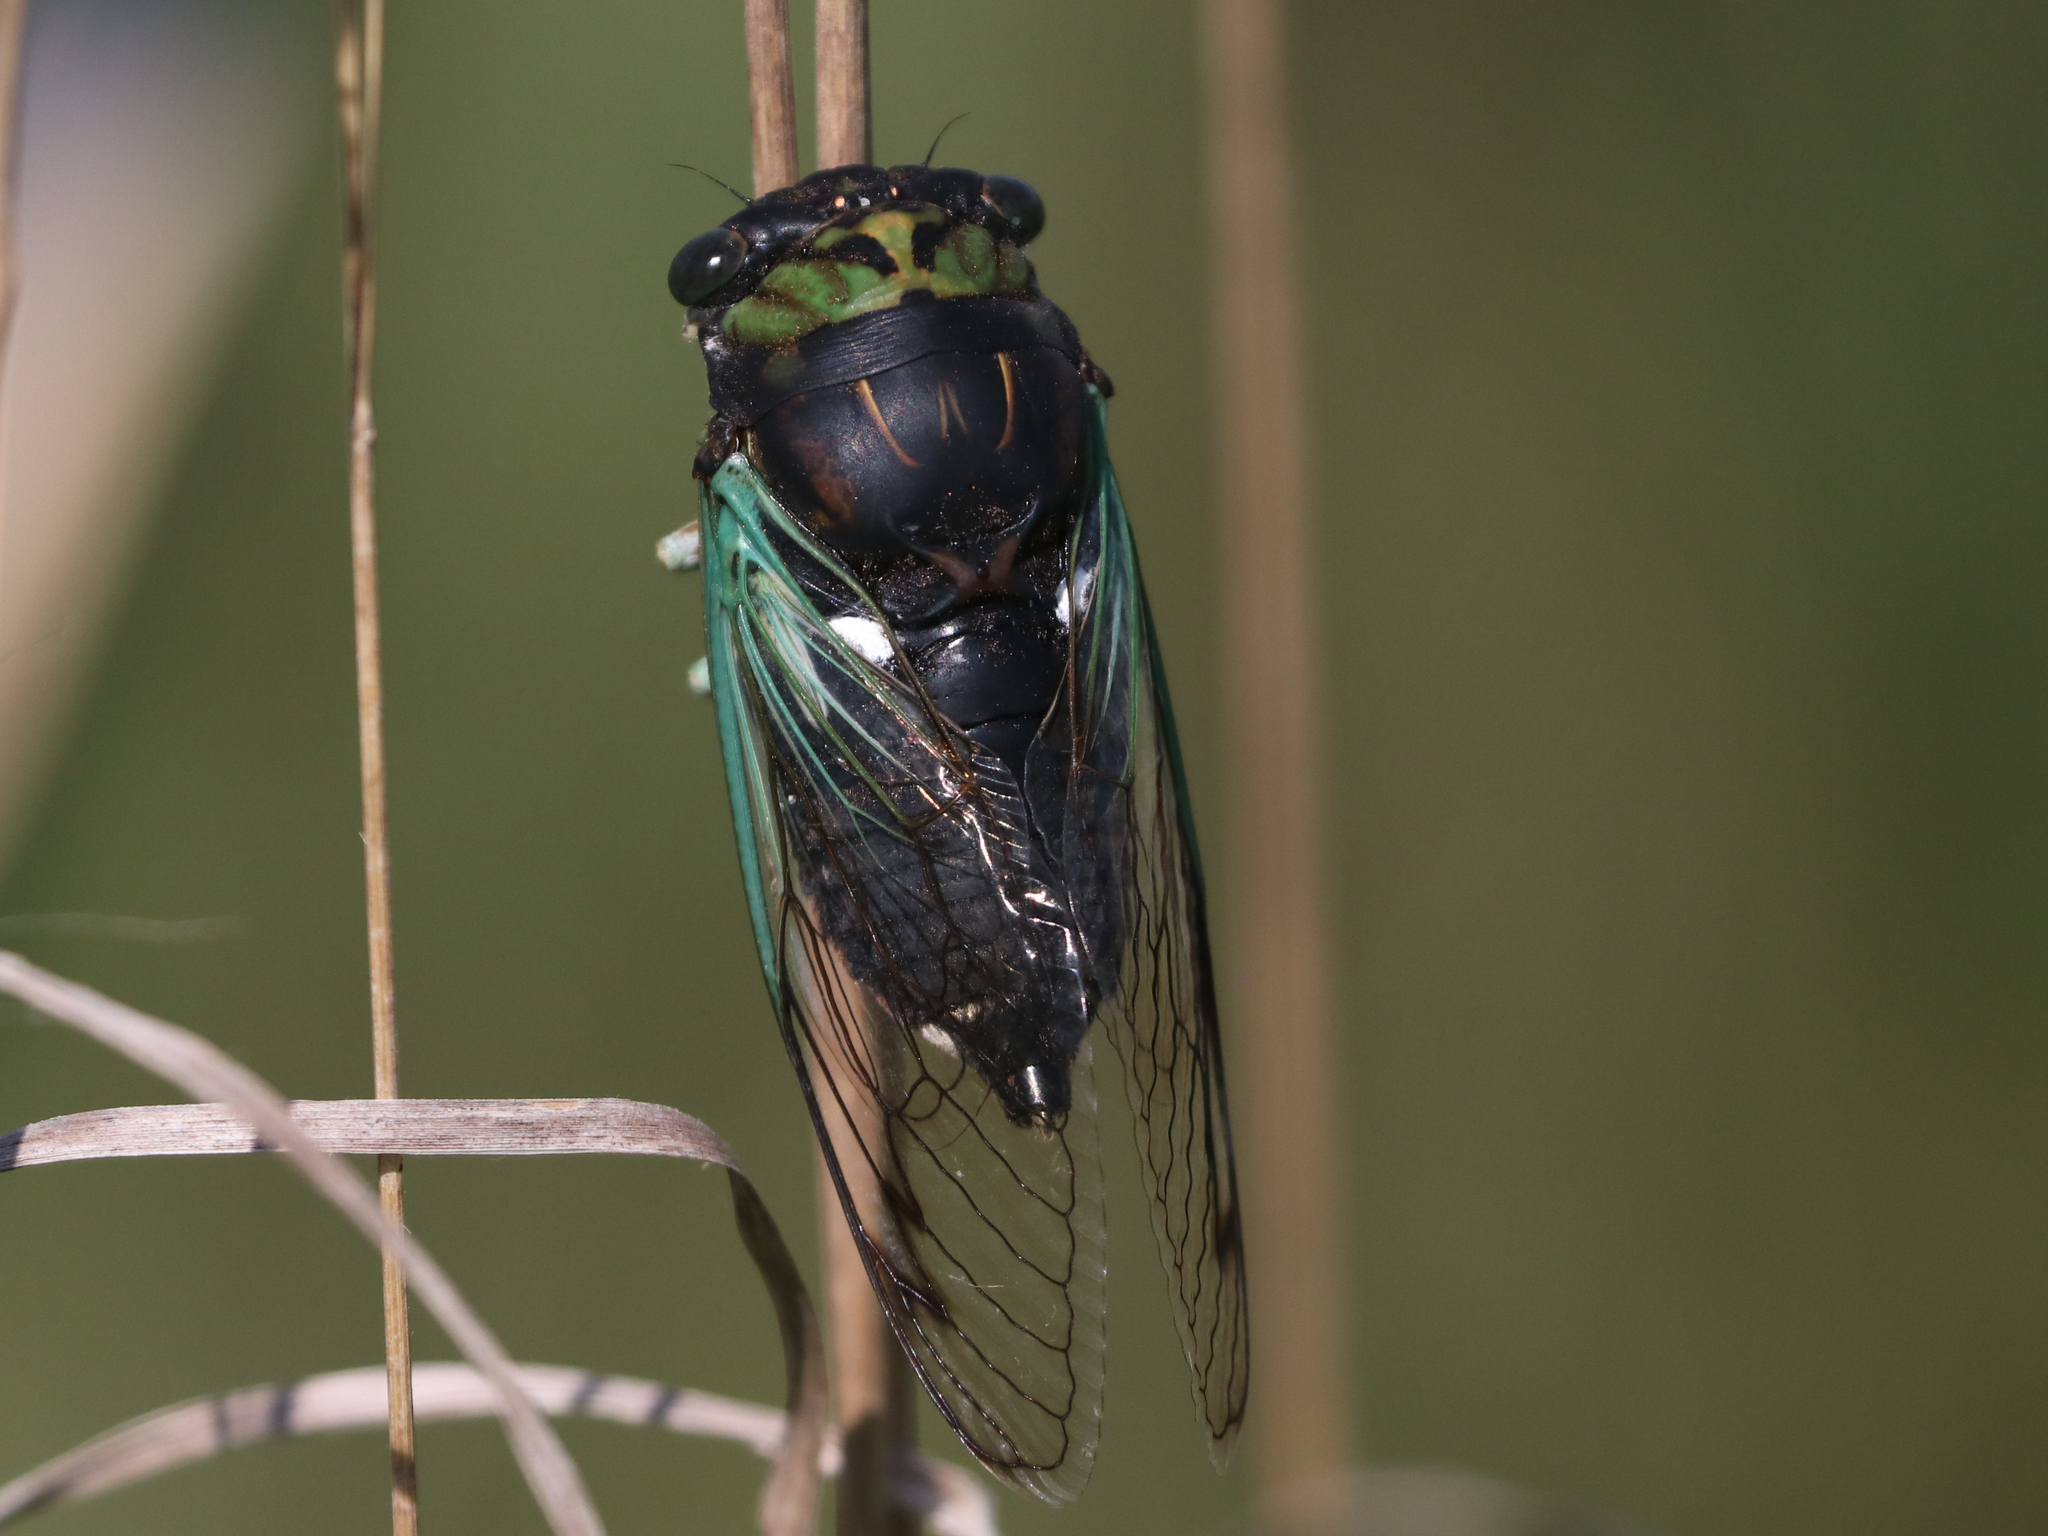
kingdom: Animalia
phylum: Arthropoda
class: Insecta
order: Hemiptera
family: Cicadidae
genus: Neotibicen
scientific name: Neotibicen tibicen
